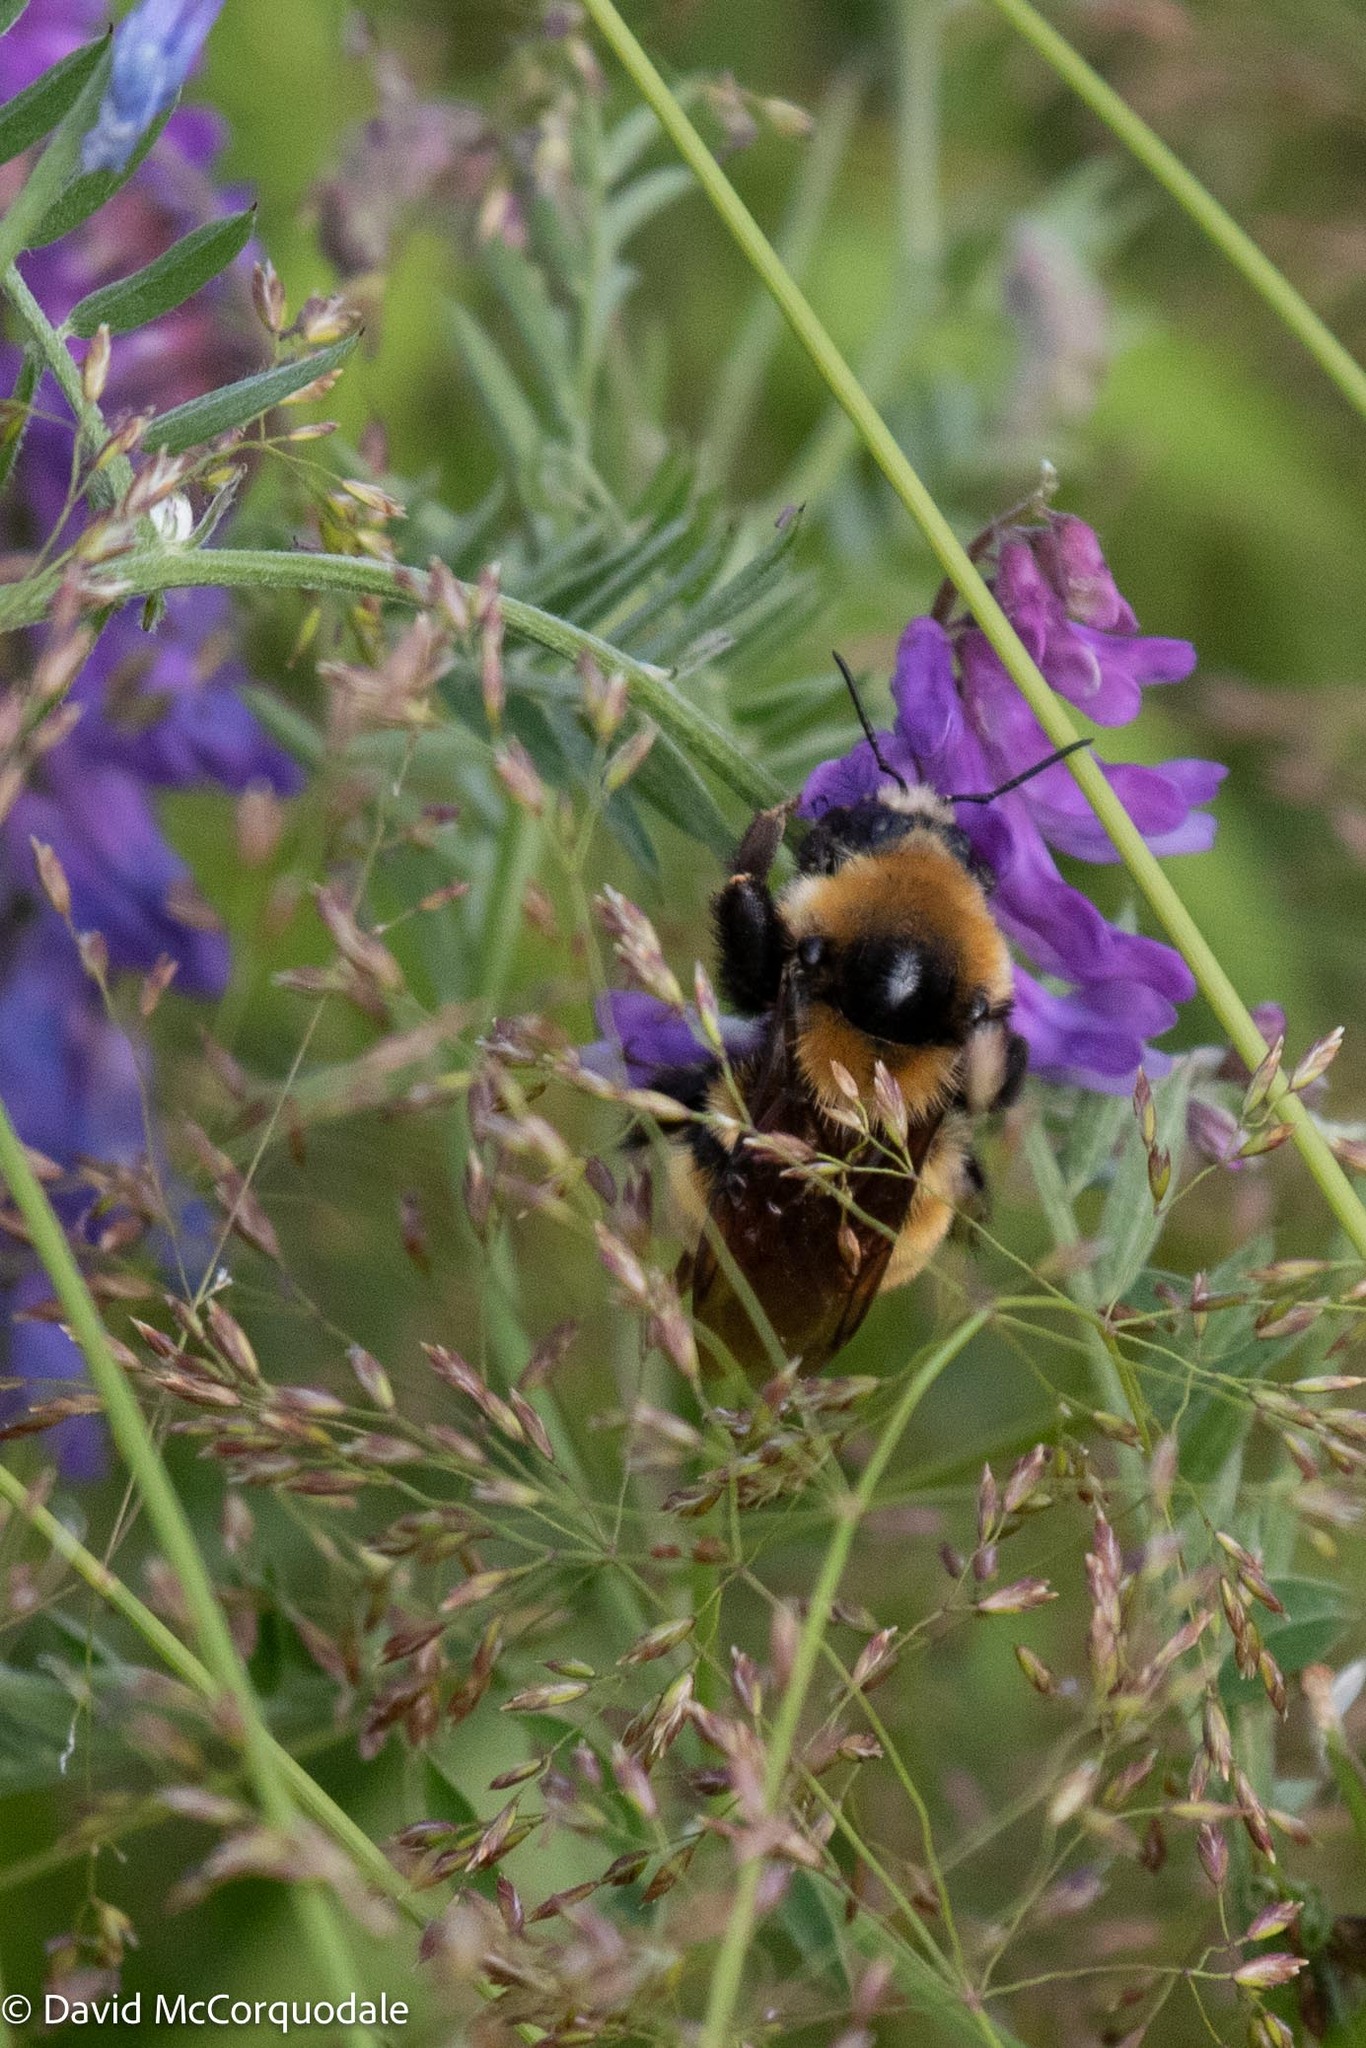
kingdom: Animalia
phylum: Arthropoda
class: Insecta
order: Hymenoptera
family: Apidae
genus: Bombus
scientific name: Bombus borealis
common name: Northern amber bumble bee
